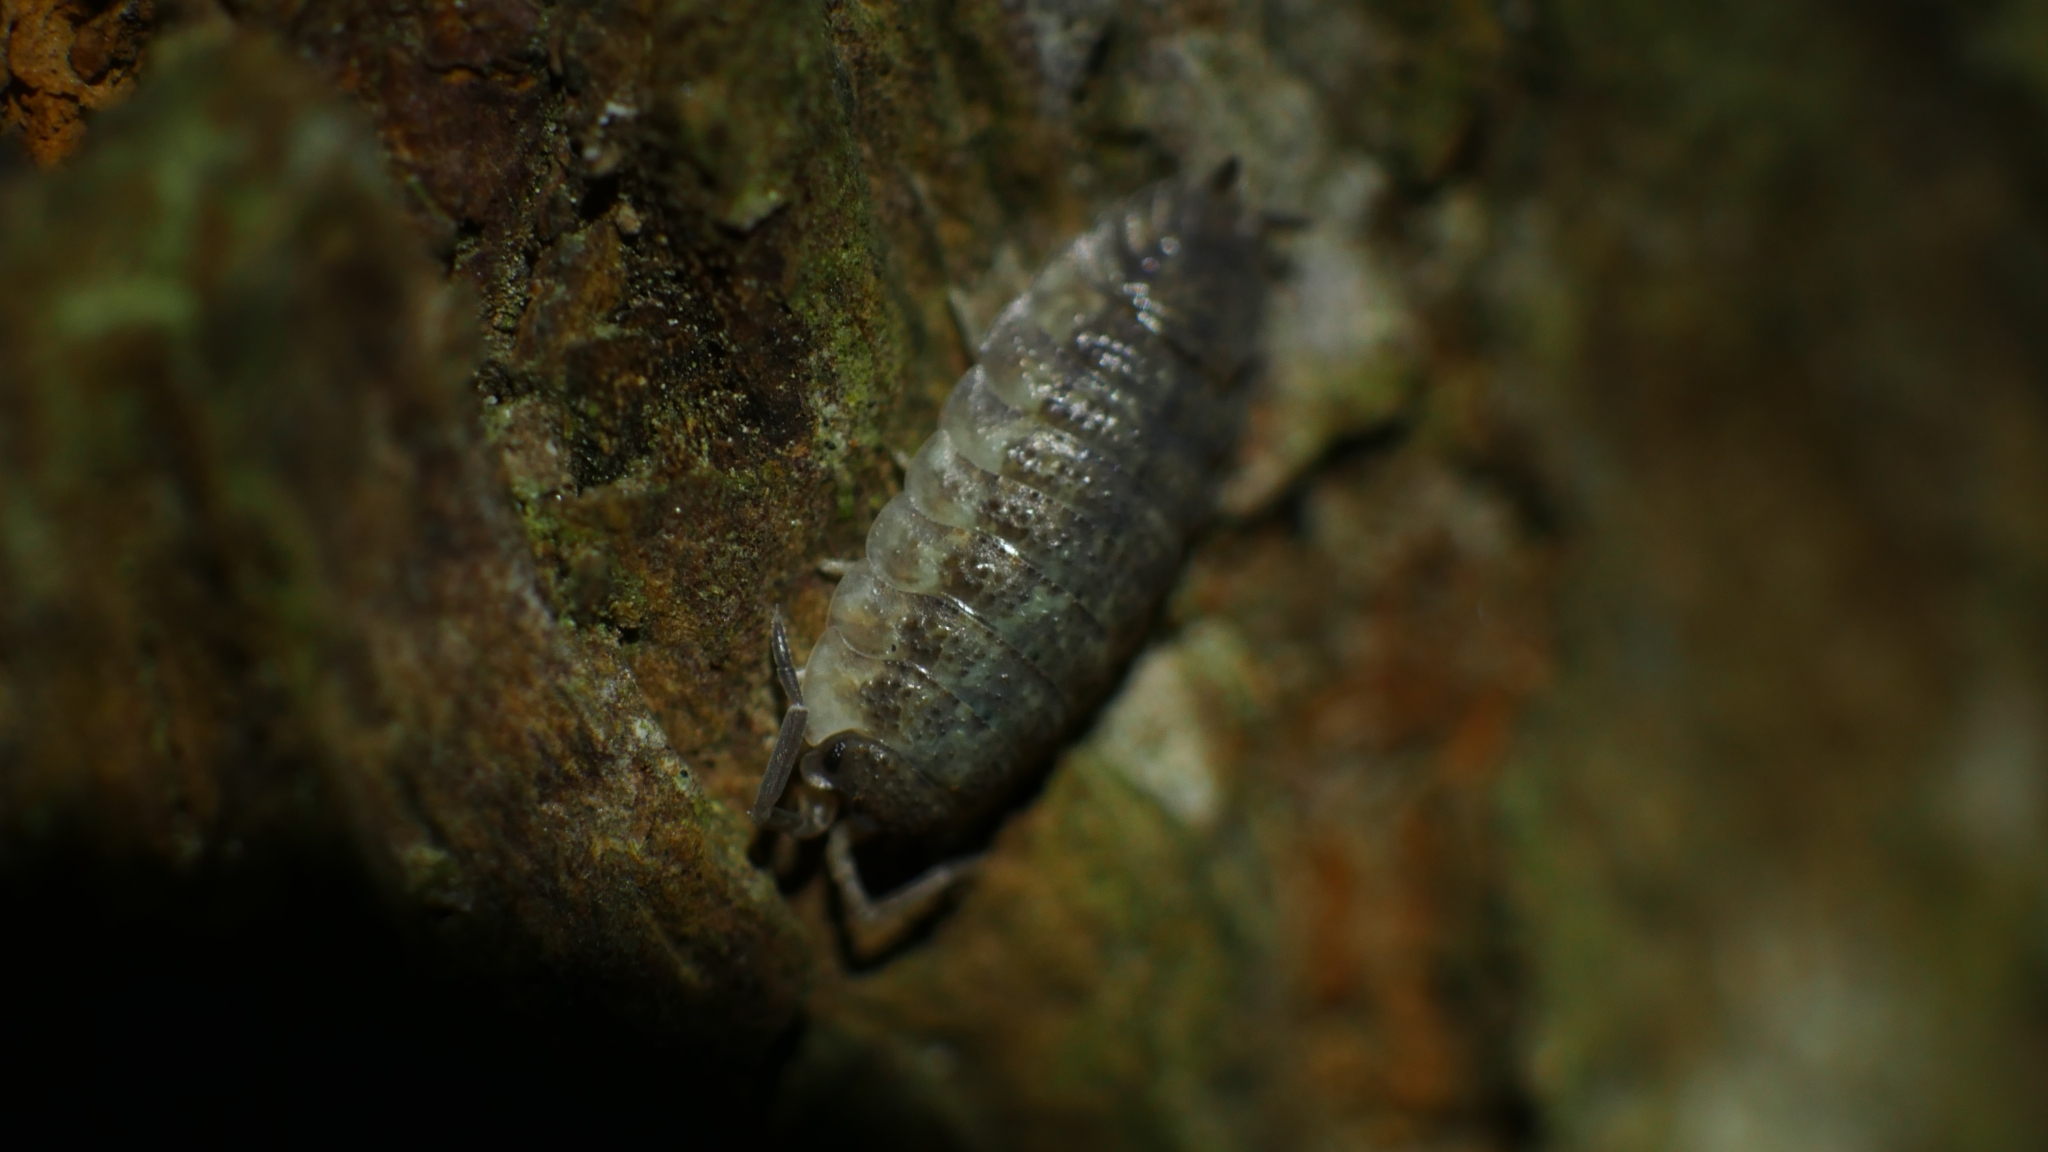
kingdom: Animalia
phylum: Arthropoda
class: Malacostraca
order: Isopoda
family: Porcellionidae
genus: Porcellio
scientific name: Porcellio scaber
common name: Common rough woodlouse
